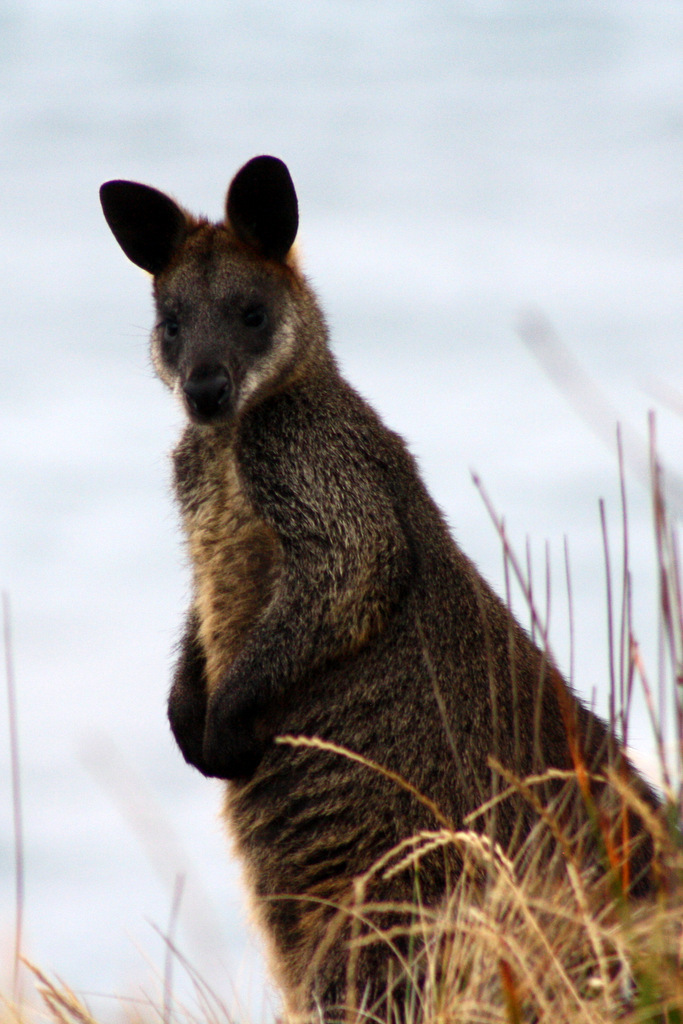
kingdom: Animalia
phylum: Chordata
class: Mammalia
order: Diprotodontia
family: Macropodidae
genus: Wallabia
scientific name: Wallabia bicolor
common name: Swamp wallaby
